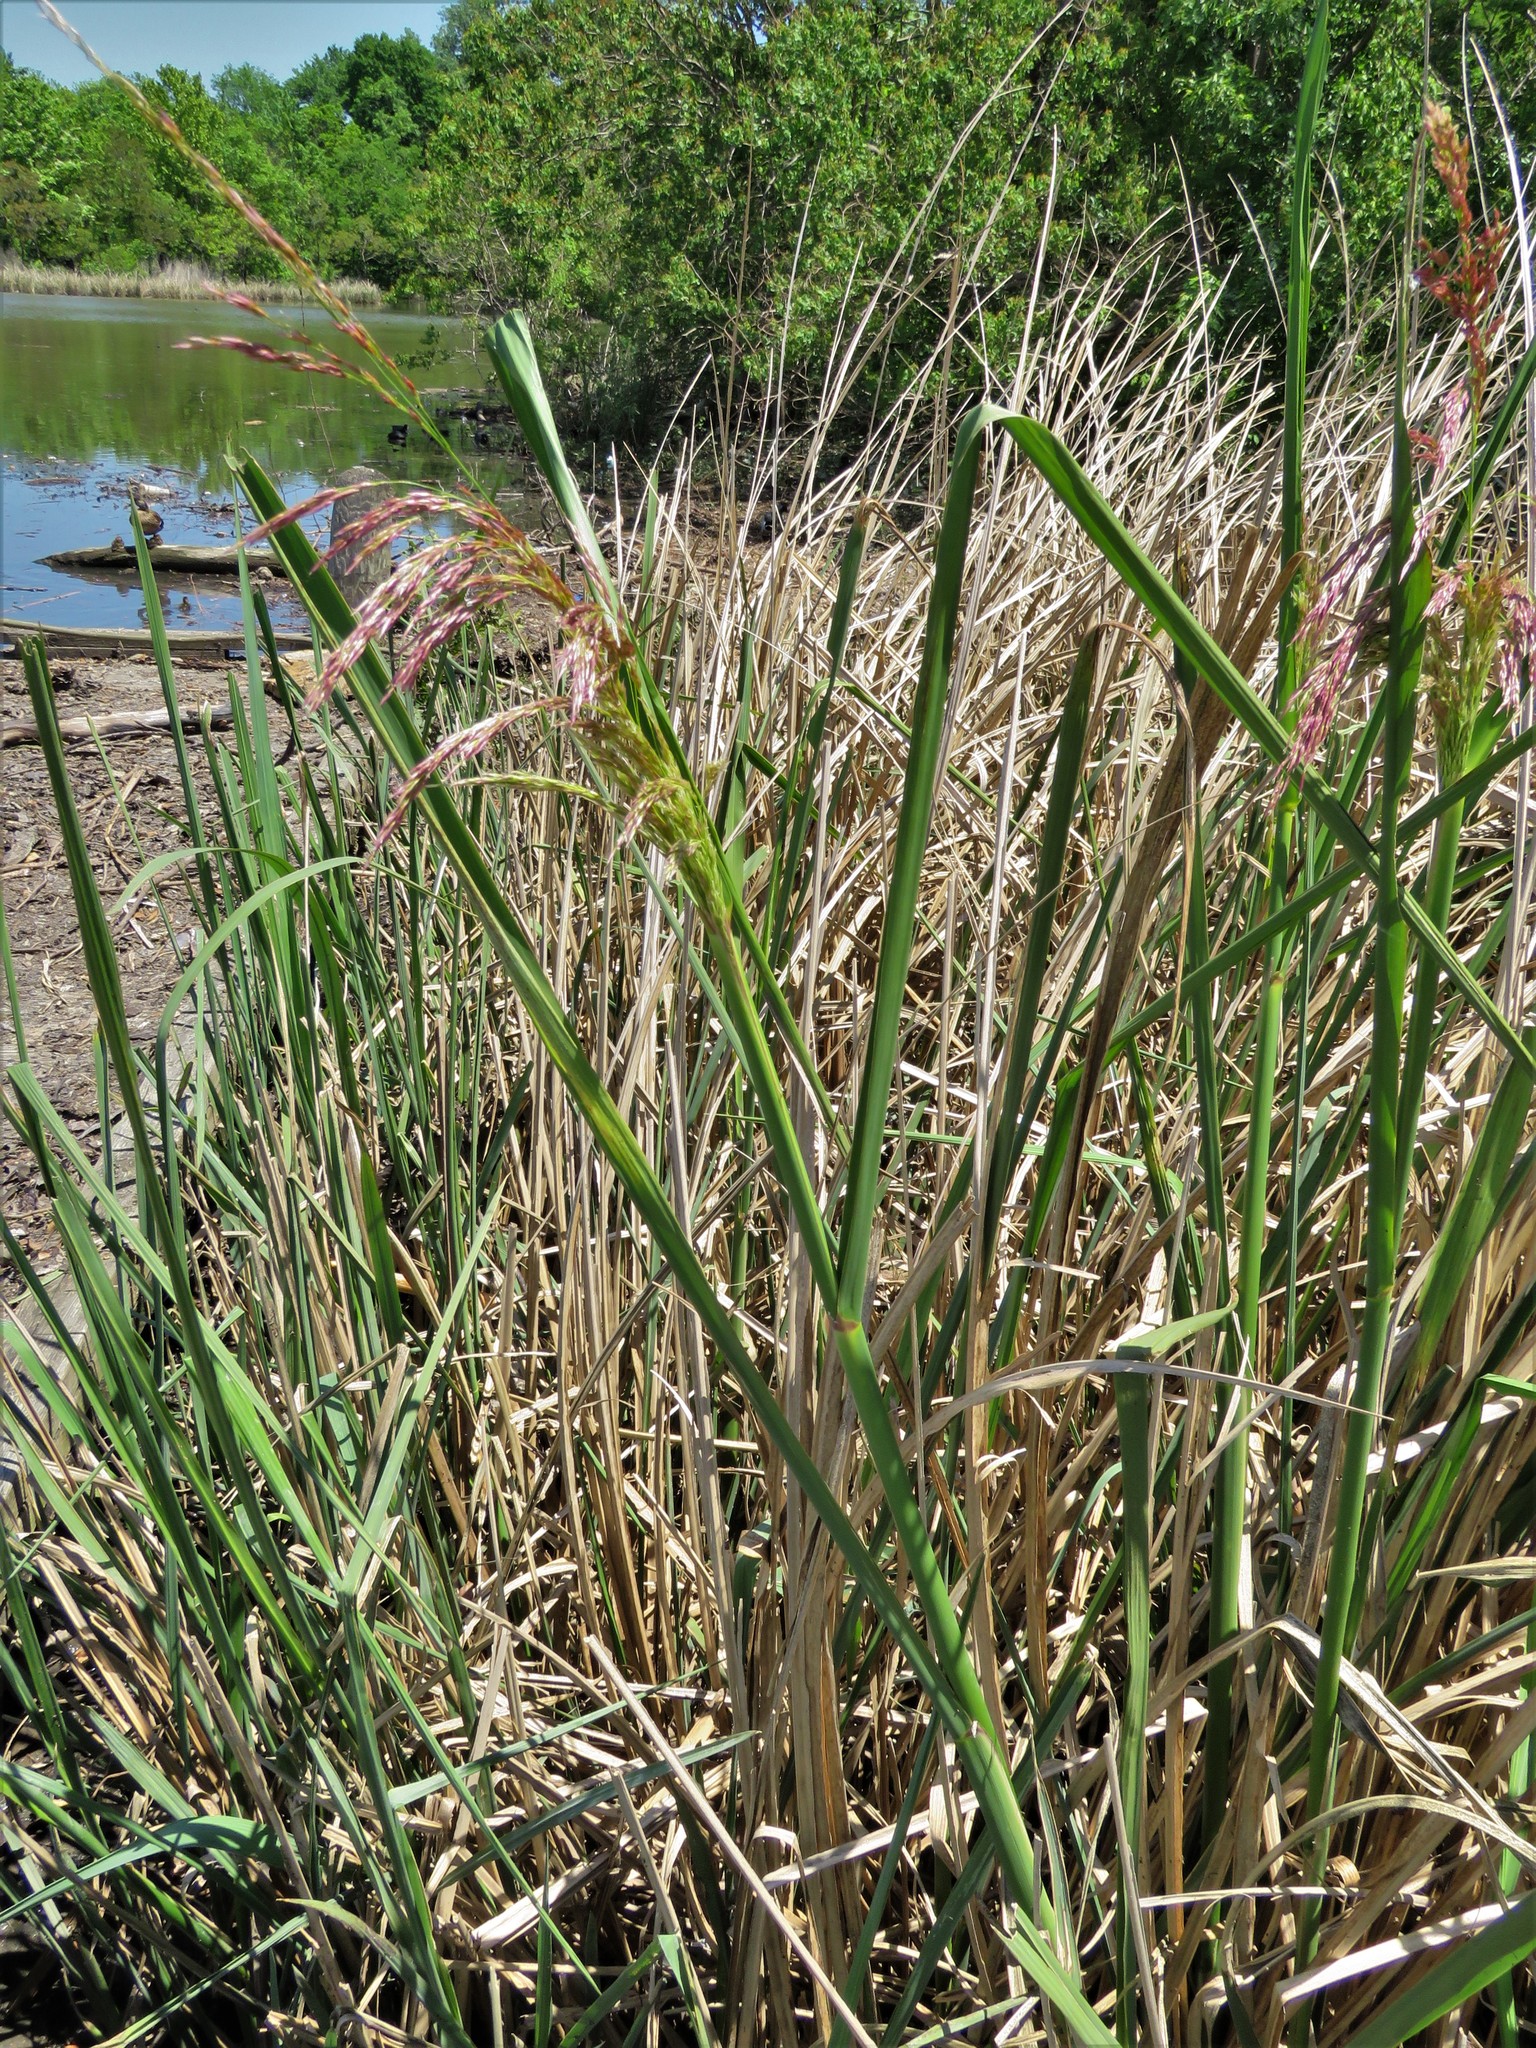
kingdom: Plantae
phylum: Tracheophyta
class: Liliopsida
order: Poales
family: Poaceae
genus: Zizaniopsis
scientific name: Zizaniopsis miliacea
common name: Giant-cutgrass
